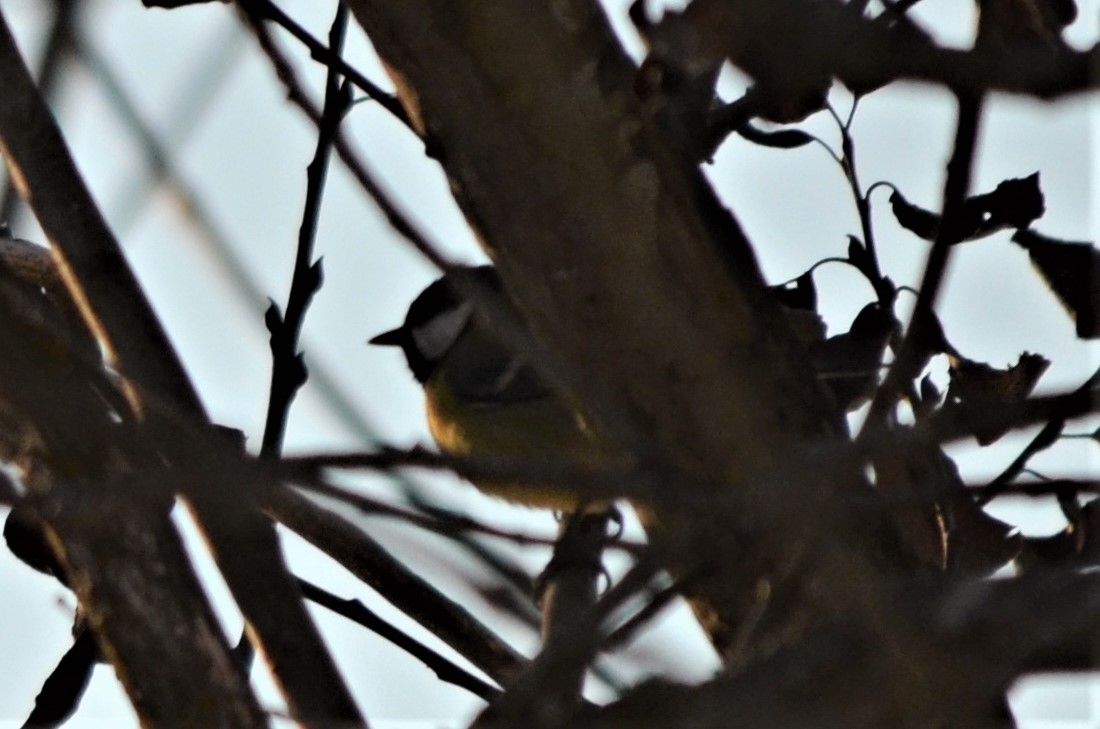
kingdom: Animalia
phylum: Chordata
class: Aves
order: Passeriformes
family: Paridae
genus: Parus
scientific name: Parus major
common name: Great tit
